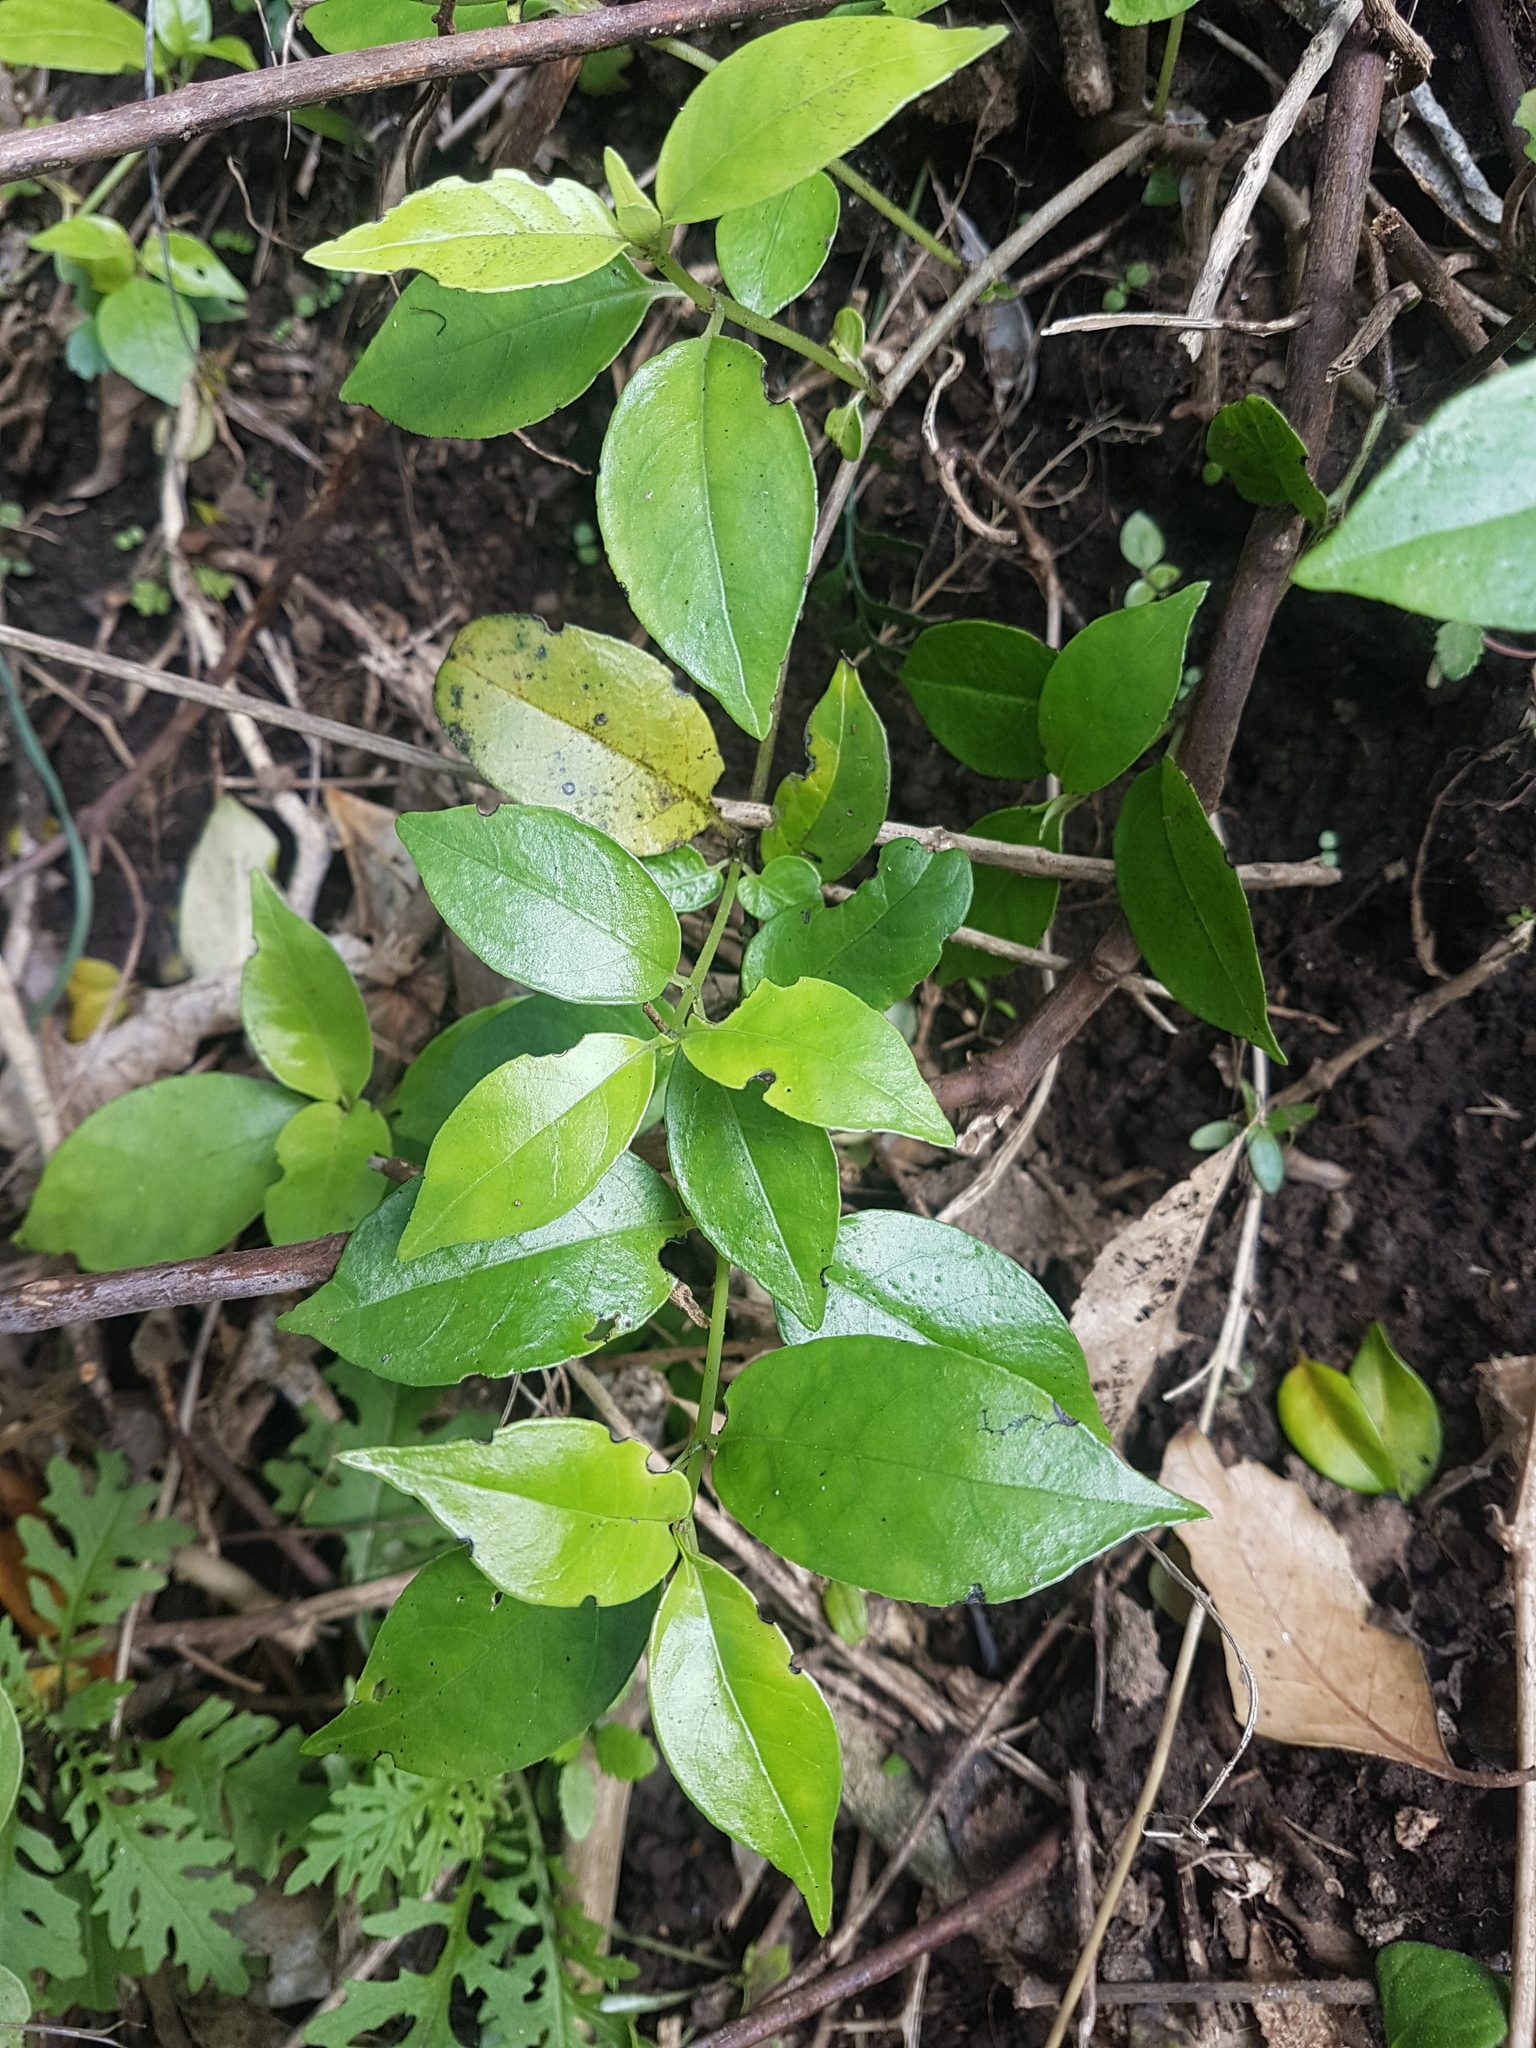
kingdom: Plantae
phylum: Tracheophyta
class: Magnoliopsida
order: Gentianales
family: Loganiaceae
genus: Geniostoma
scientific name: Geniostoma ligustrifolium
